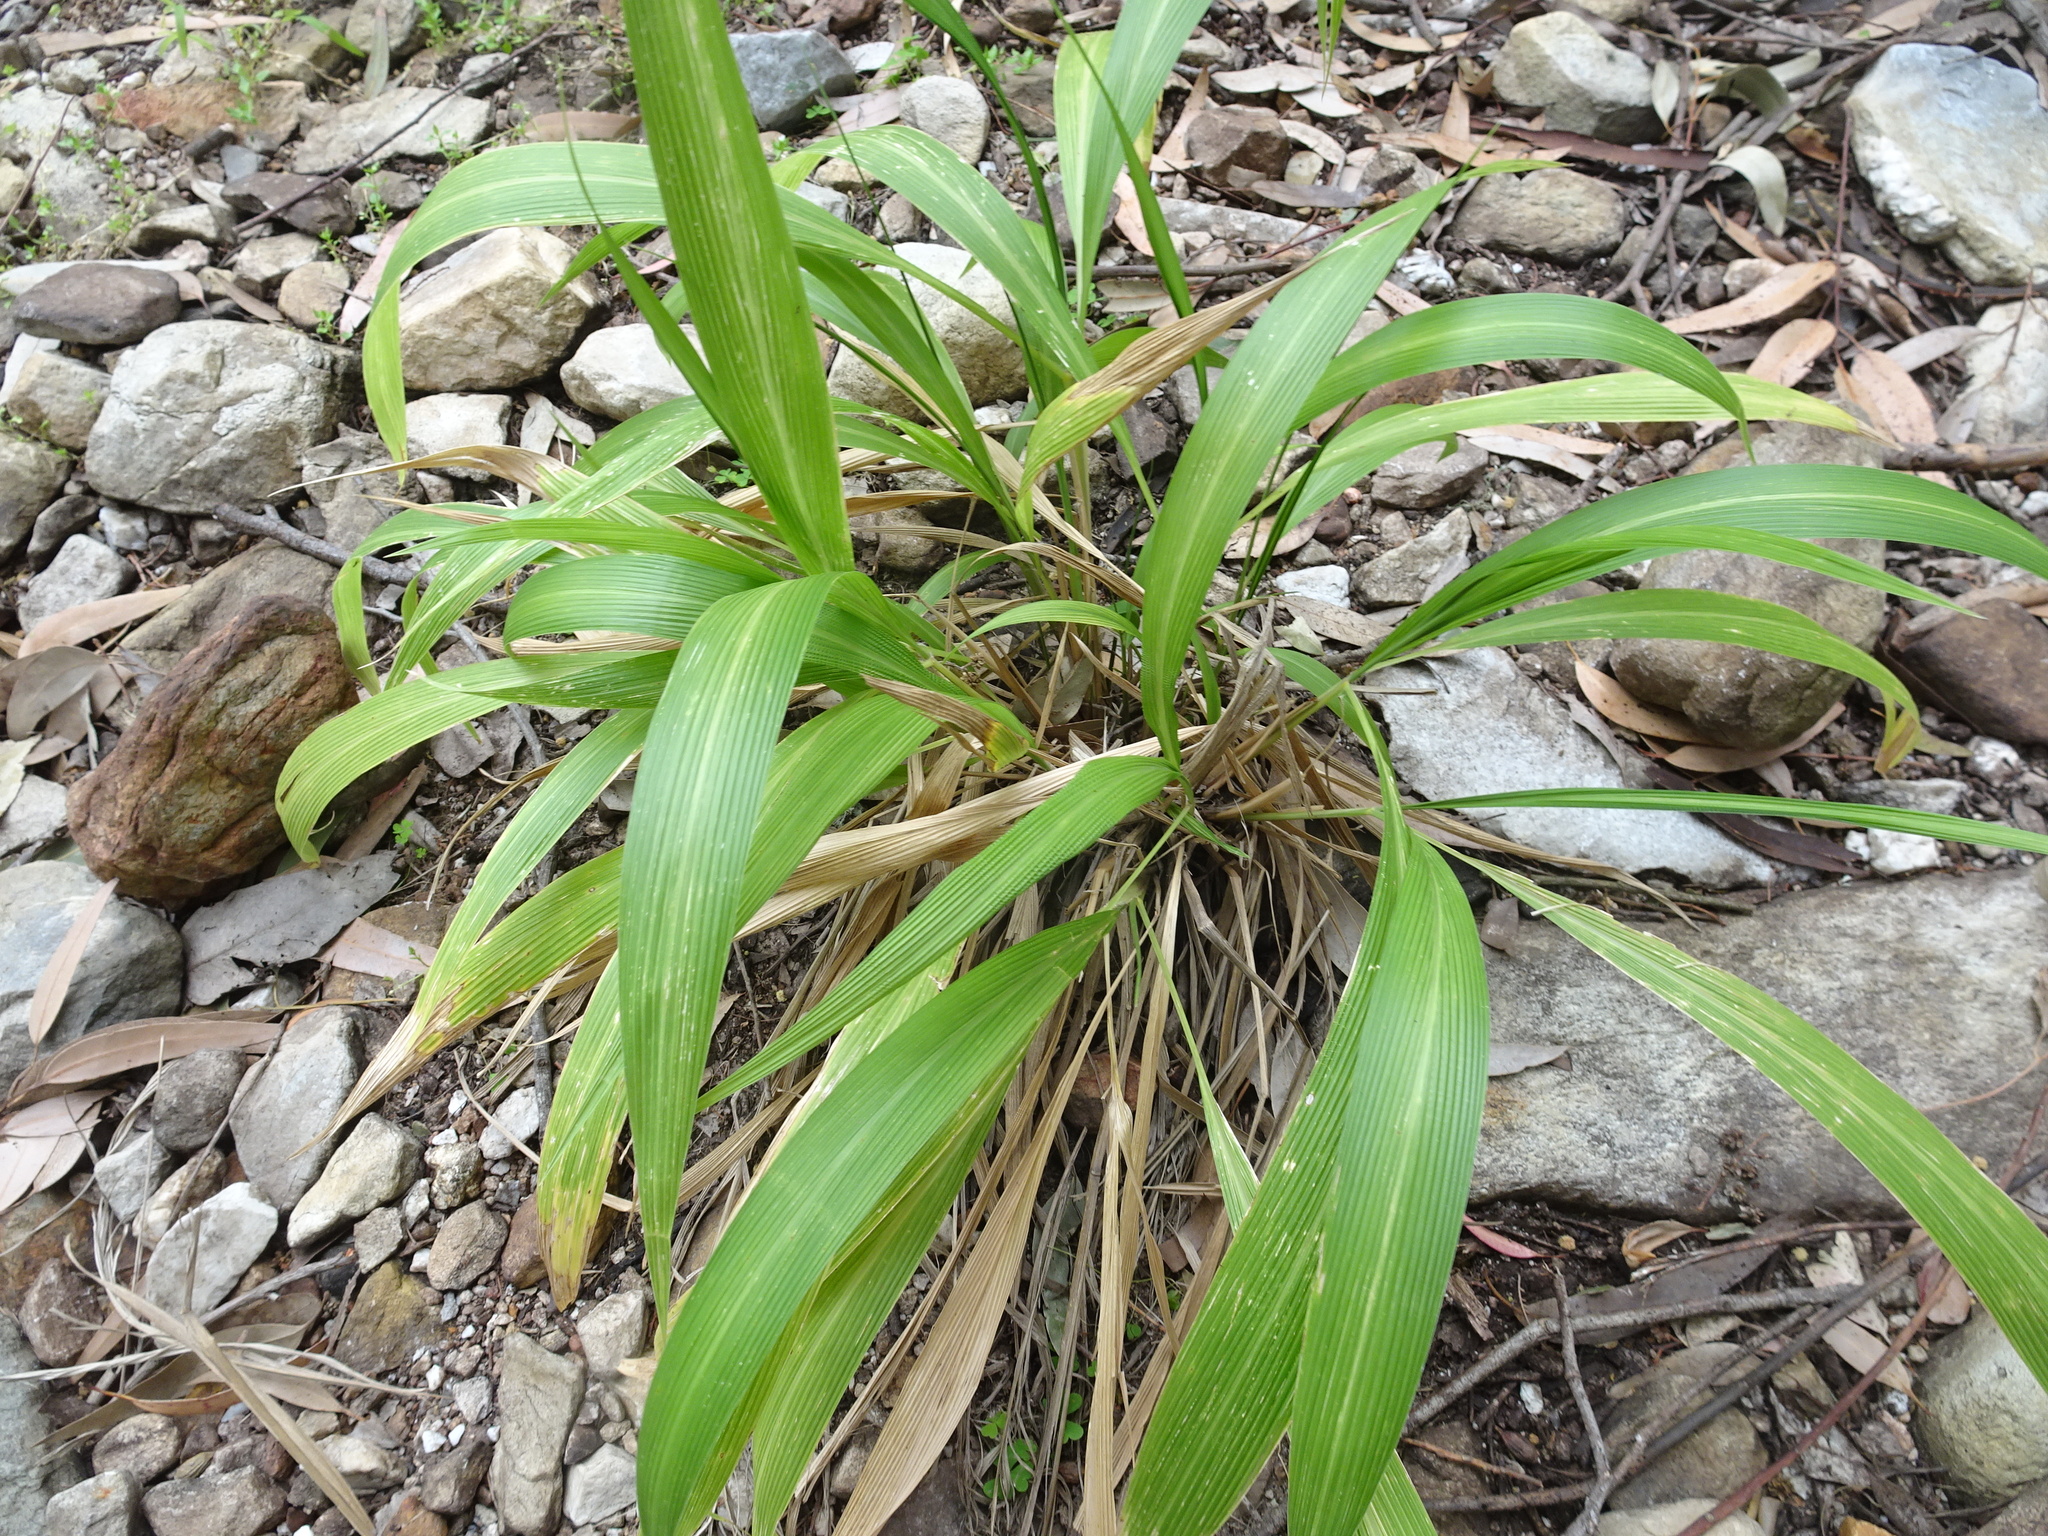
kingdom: Plantae
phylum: Tracheophyta
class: Liliopsida
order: Poales
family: Poaceae
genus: Setaria
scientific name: Setaria megaphylla
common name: Bigleaf bristlegrass
